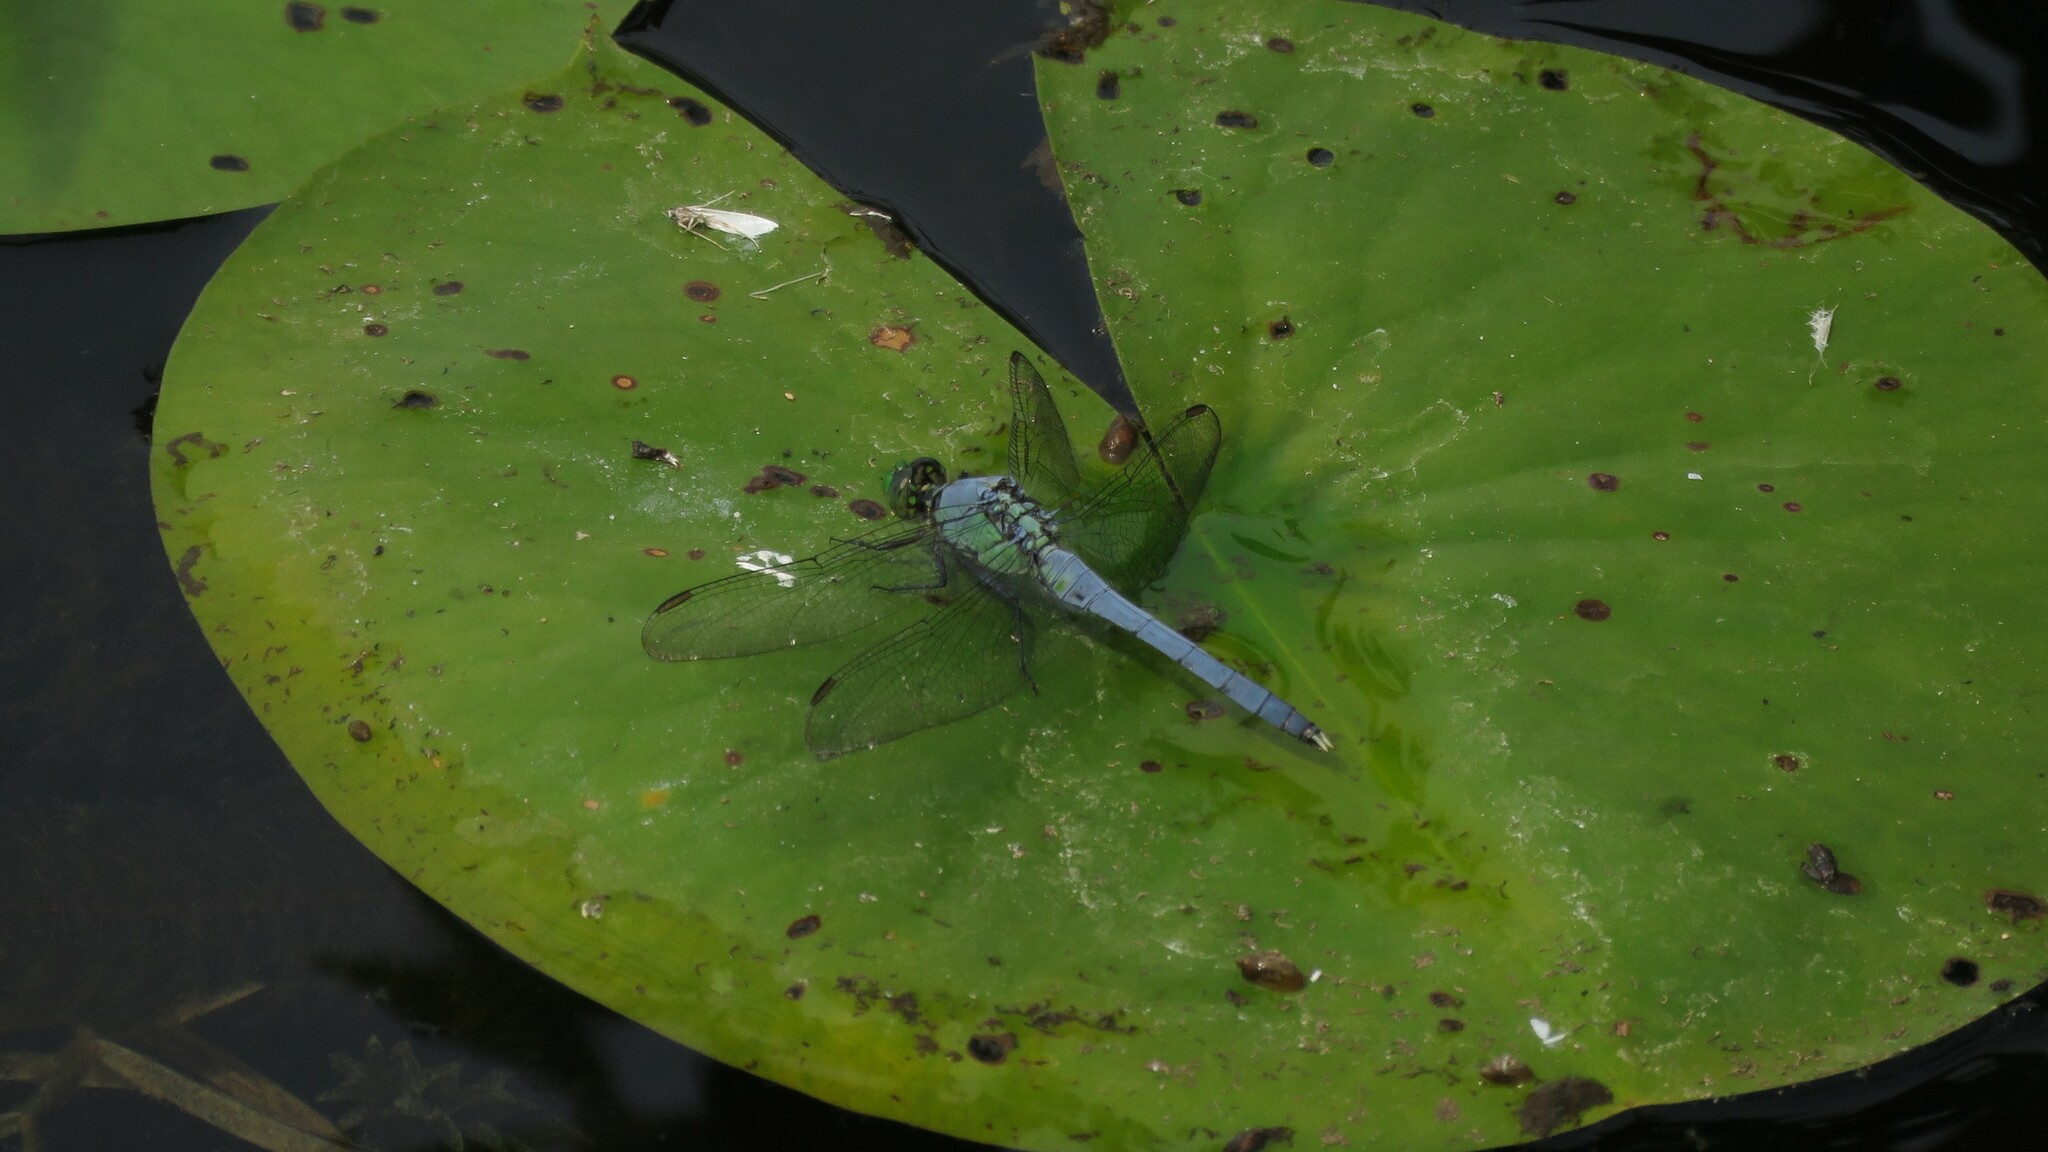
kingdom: Animalia
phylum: Arthropoda
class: Insecta
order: Odonata
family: Libellulidae
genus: Erythemis
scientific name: Erythemis simplicicollis
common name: Eastern pondhawk
